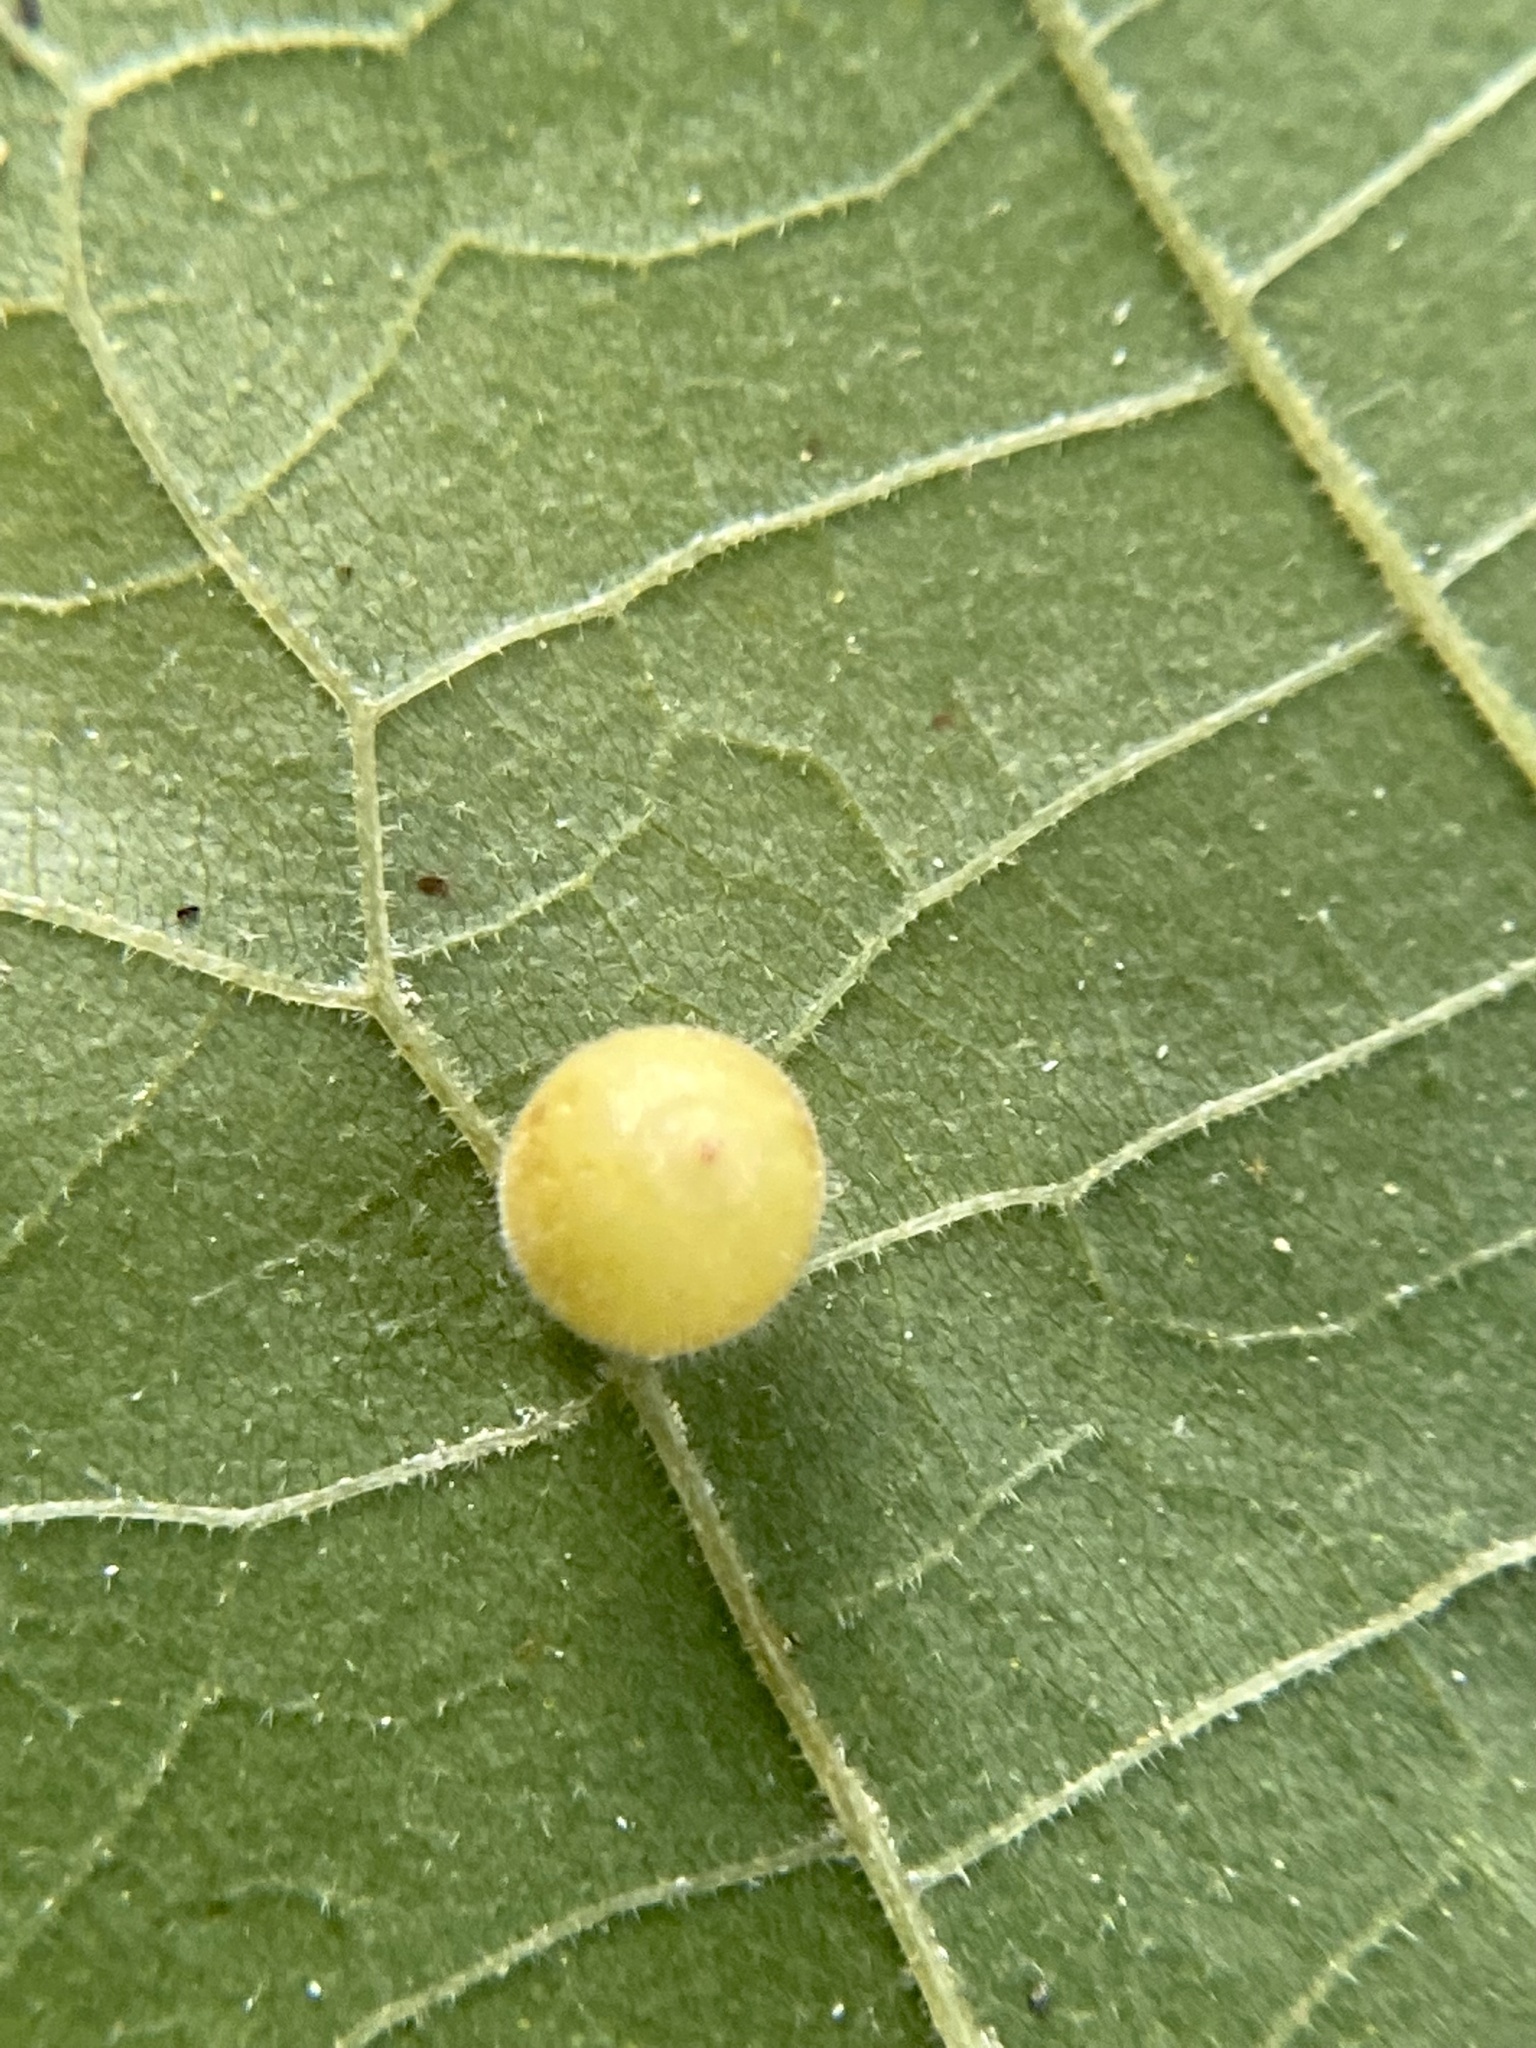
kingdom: Animalia
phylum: Arthropoda
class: Insecta
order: Diptera
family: Cecidomyiidae
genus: Caryomyia
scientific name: Caryomyia cilidolium
